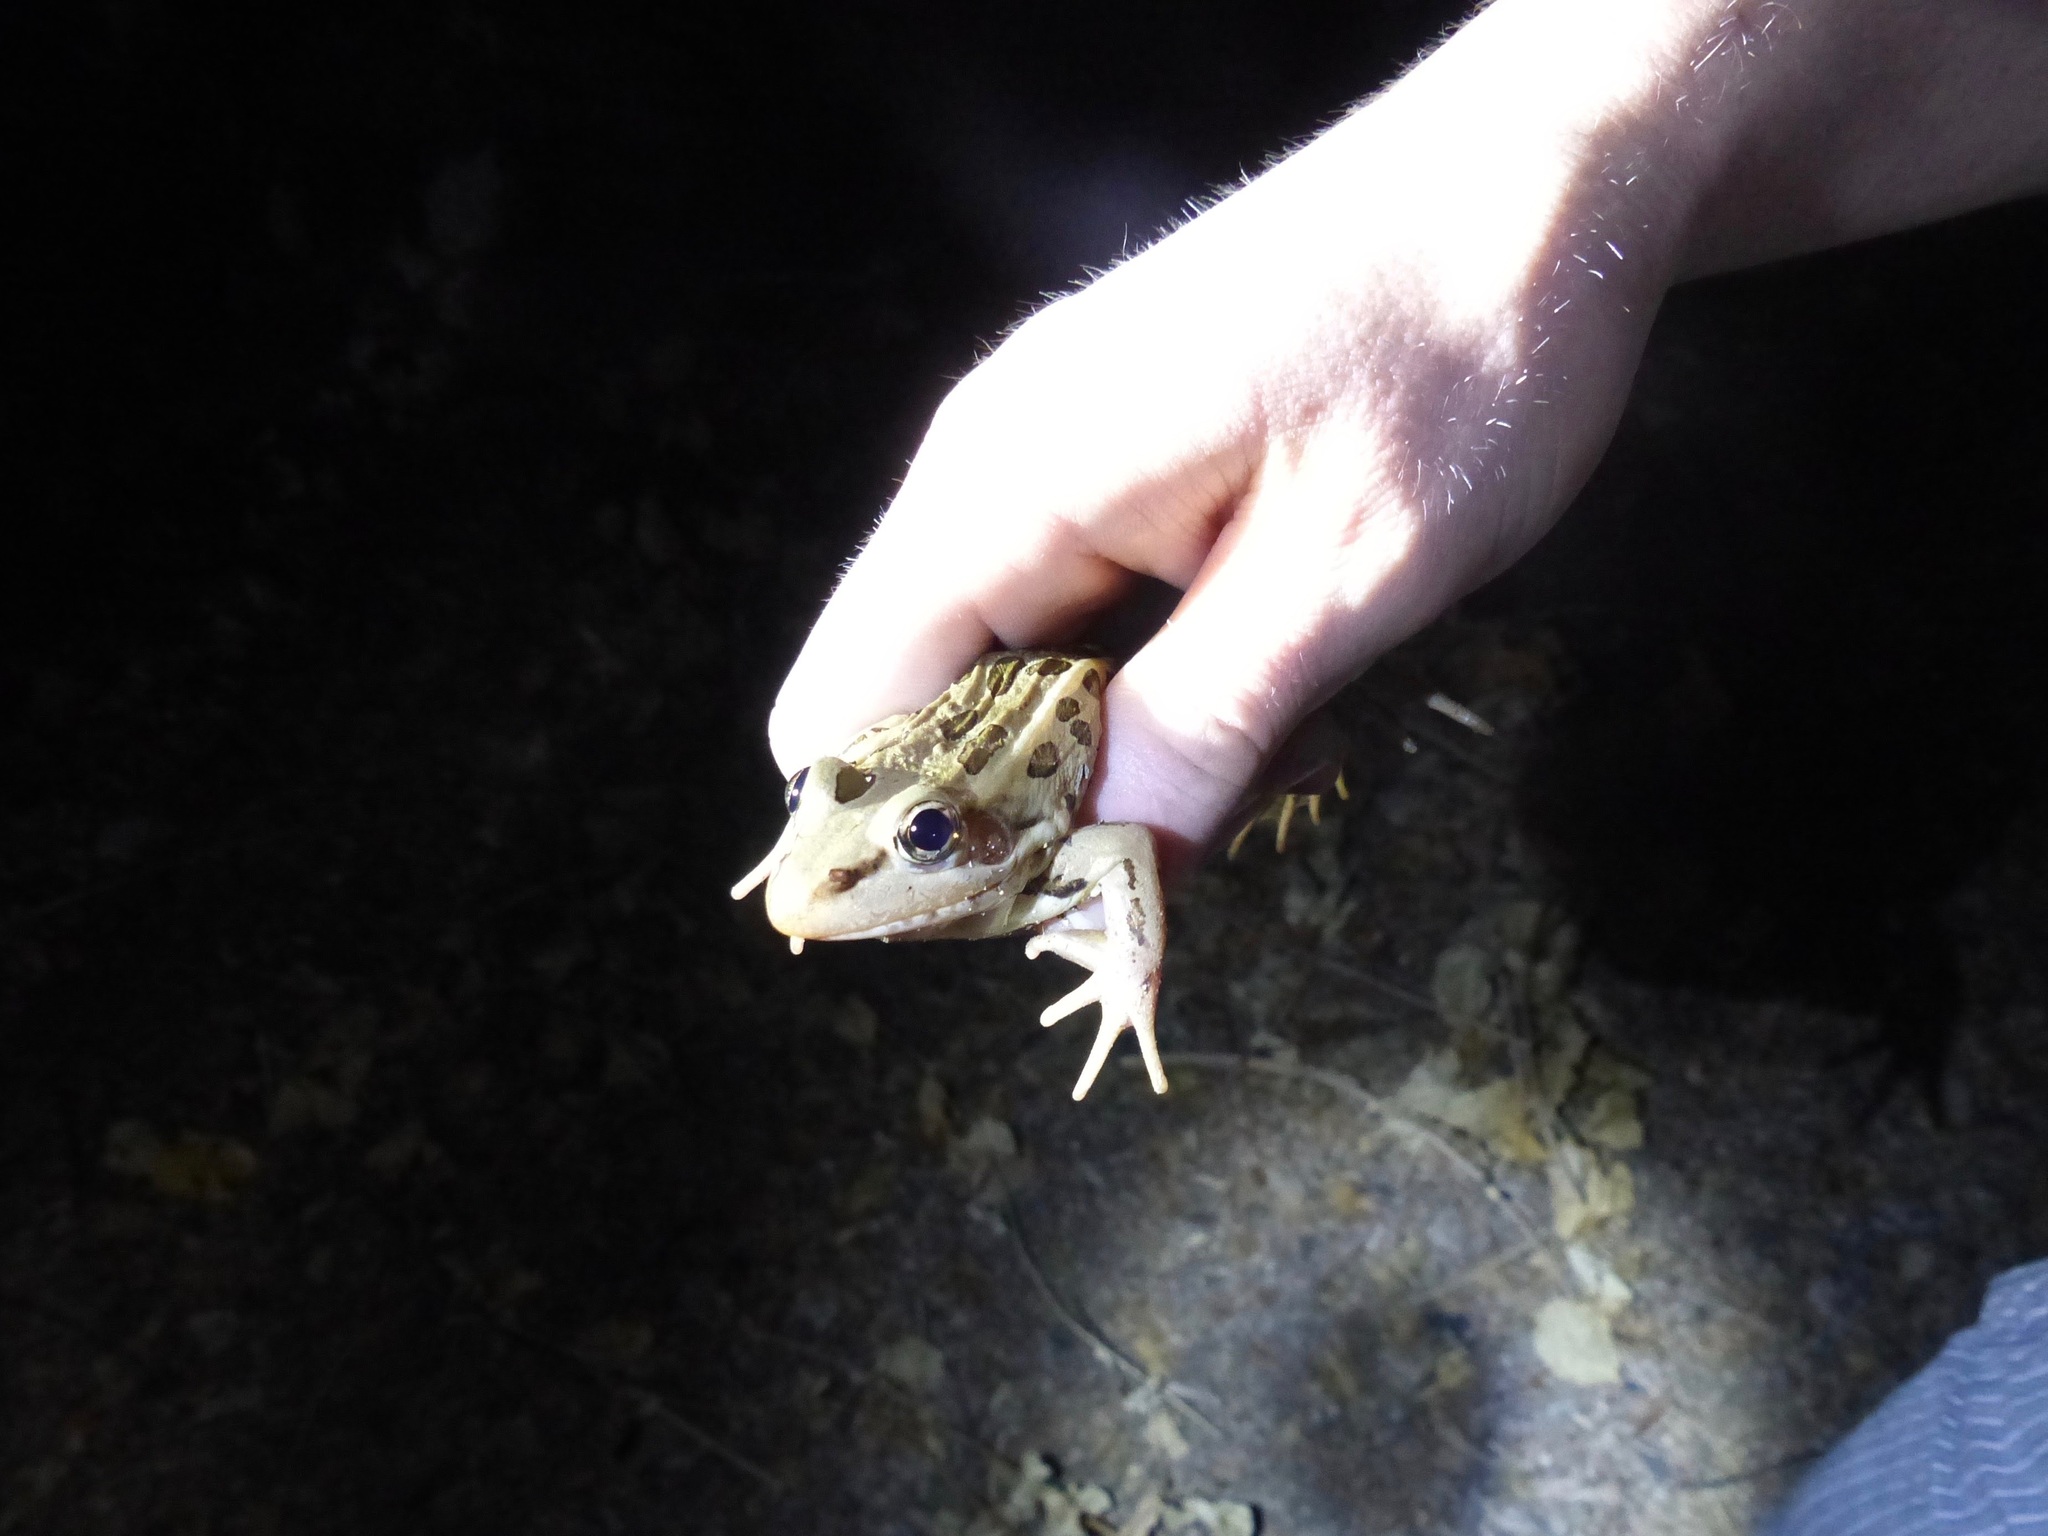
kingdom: Animalia
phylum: Chordata
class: Amphibia
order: Anura
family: Ranidae
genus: Lithobates
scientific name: Lithobates forreri
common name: Forrer's grass frog
